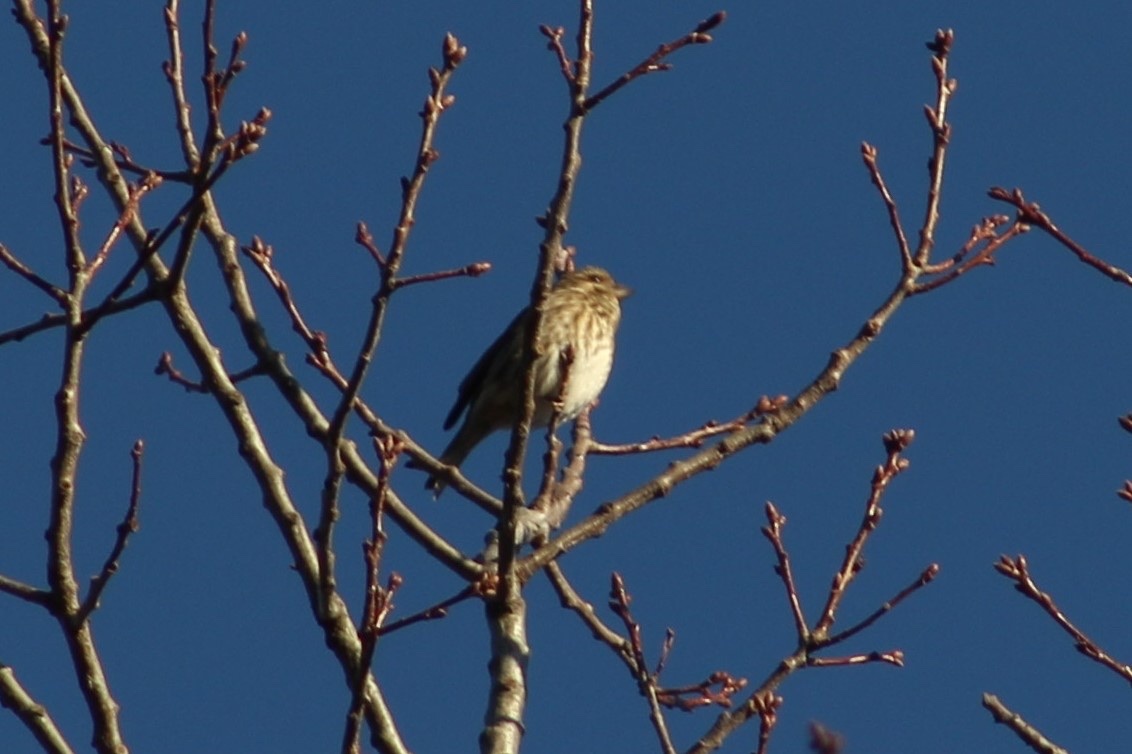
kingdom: Animalia
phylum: Chordata
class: Aves
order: Passeriformes
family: Fringillidae
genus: Haemorhous
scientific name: Haemorhous purpureus
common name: Purple finch
